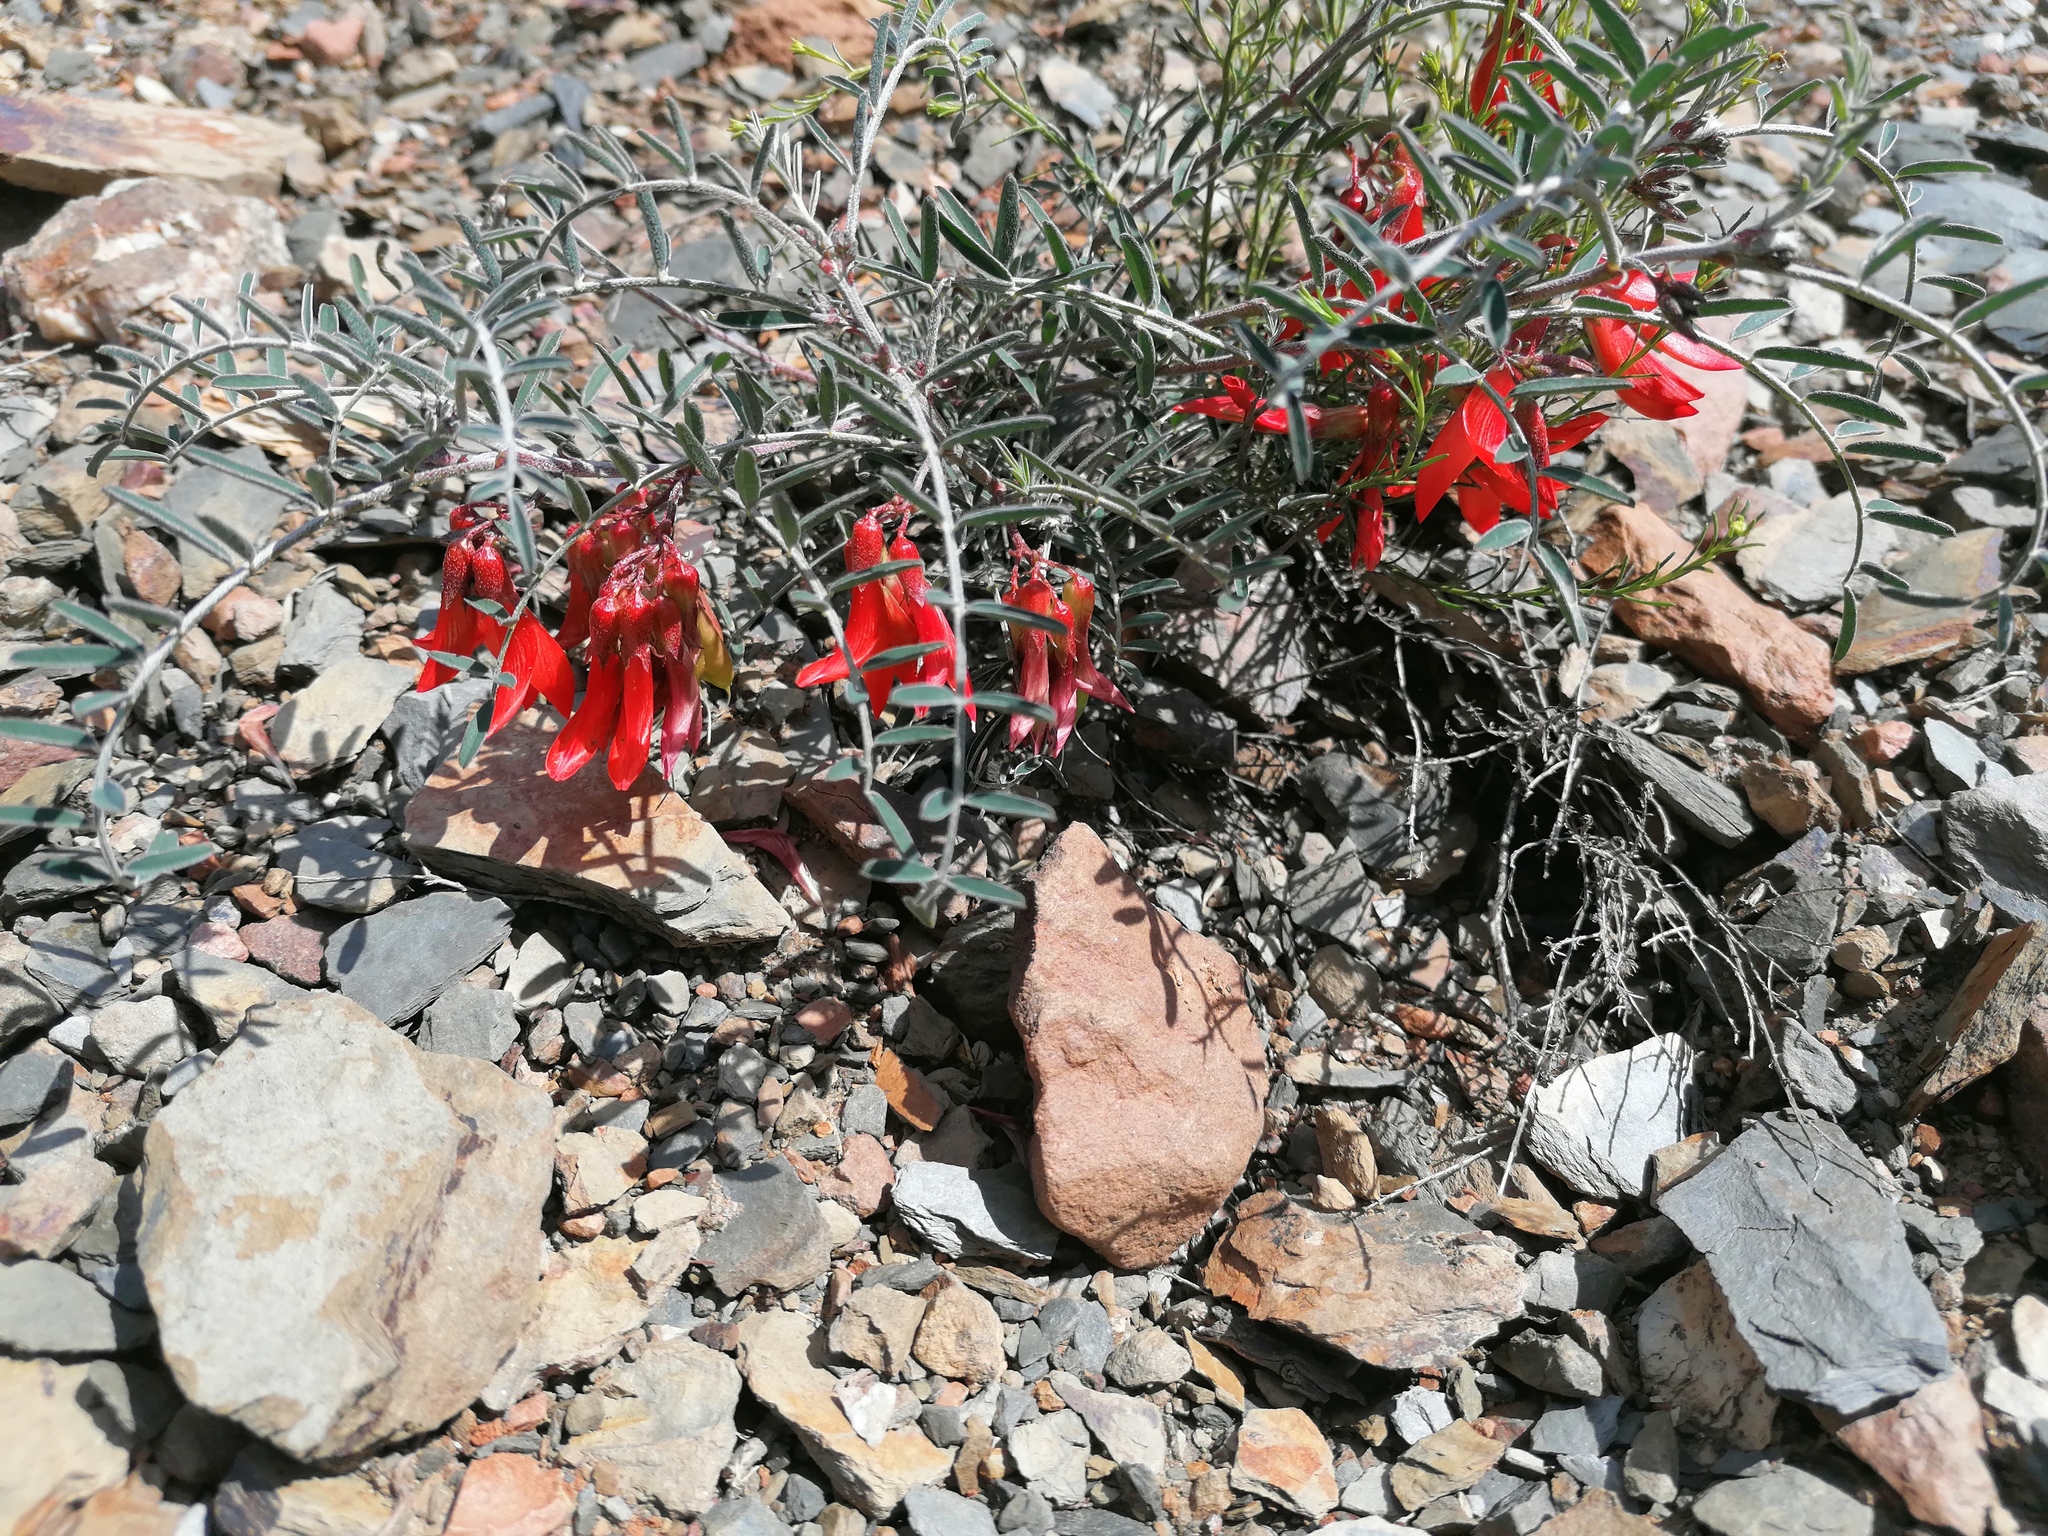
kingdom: Plantae
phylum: Tracheophyta
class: Magnoliopsida
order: Fabales
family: Fabaceae
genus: Lessertia
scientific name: Lessertia frutescens
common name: Balloon-pea
